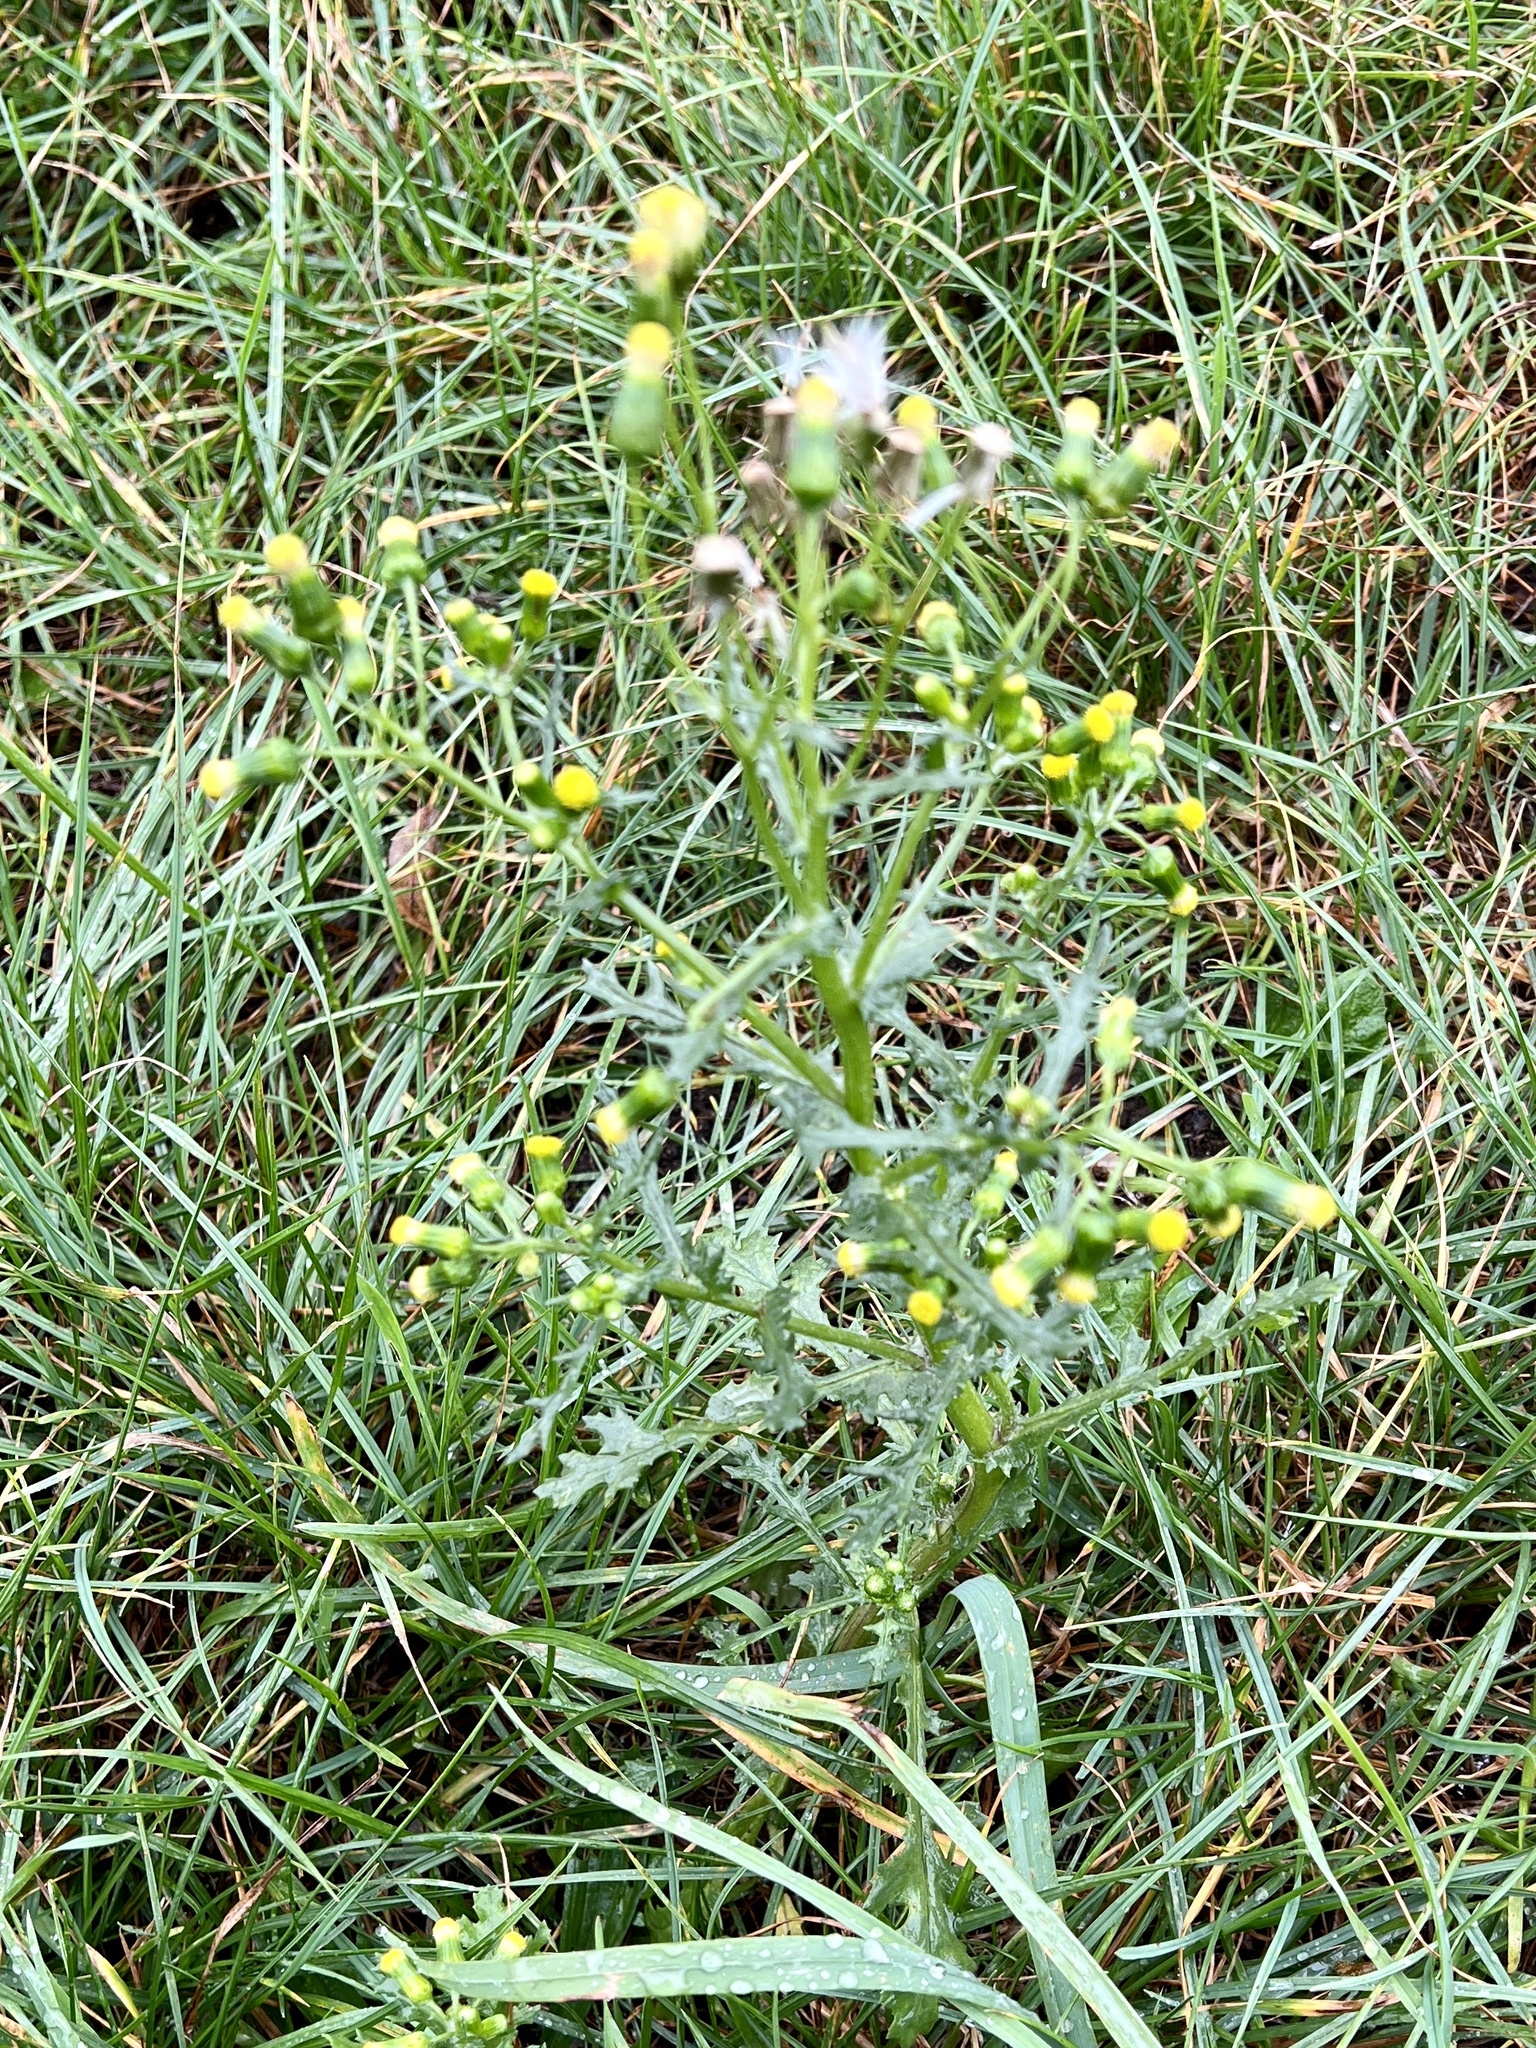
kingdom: Plantae
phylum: Tracheophyta
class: Magnoliopsida
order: Asterales
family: Asteraceae
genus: Senecio
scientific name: Senecio vulgaris
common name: Old-man-in-the-spring
